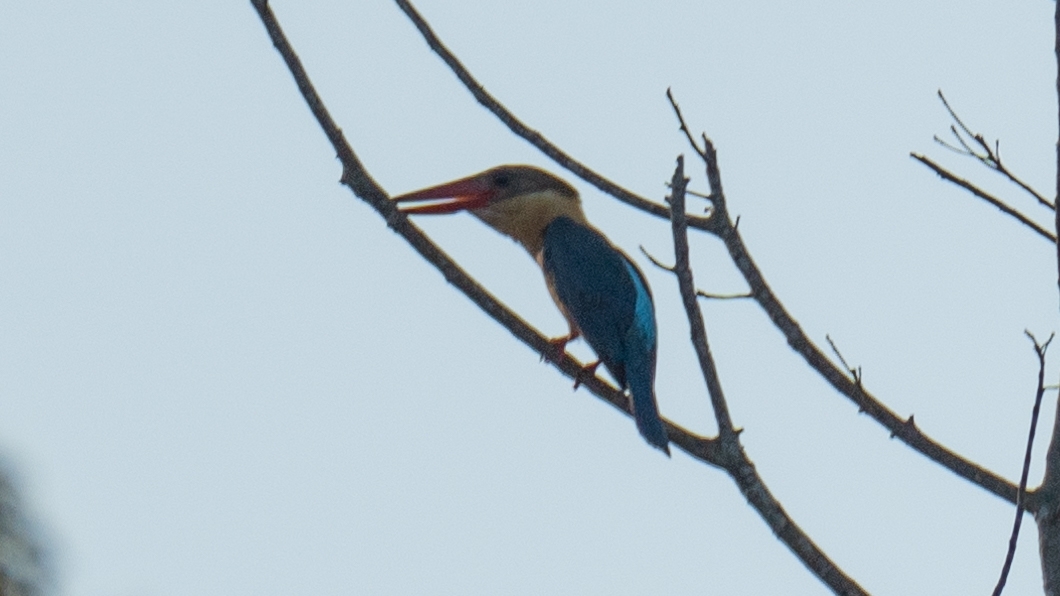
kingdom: Animalia
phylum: Chordata
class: Aves
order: Coraciiformes
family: Alcedinidae
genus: Pelargopsis
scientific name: Pelargopsis capensis
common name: Stork-billed kingfisher
